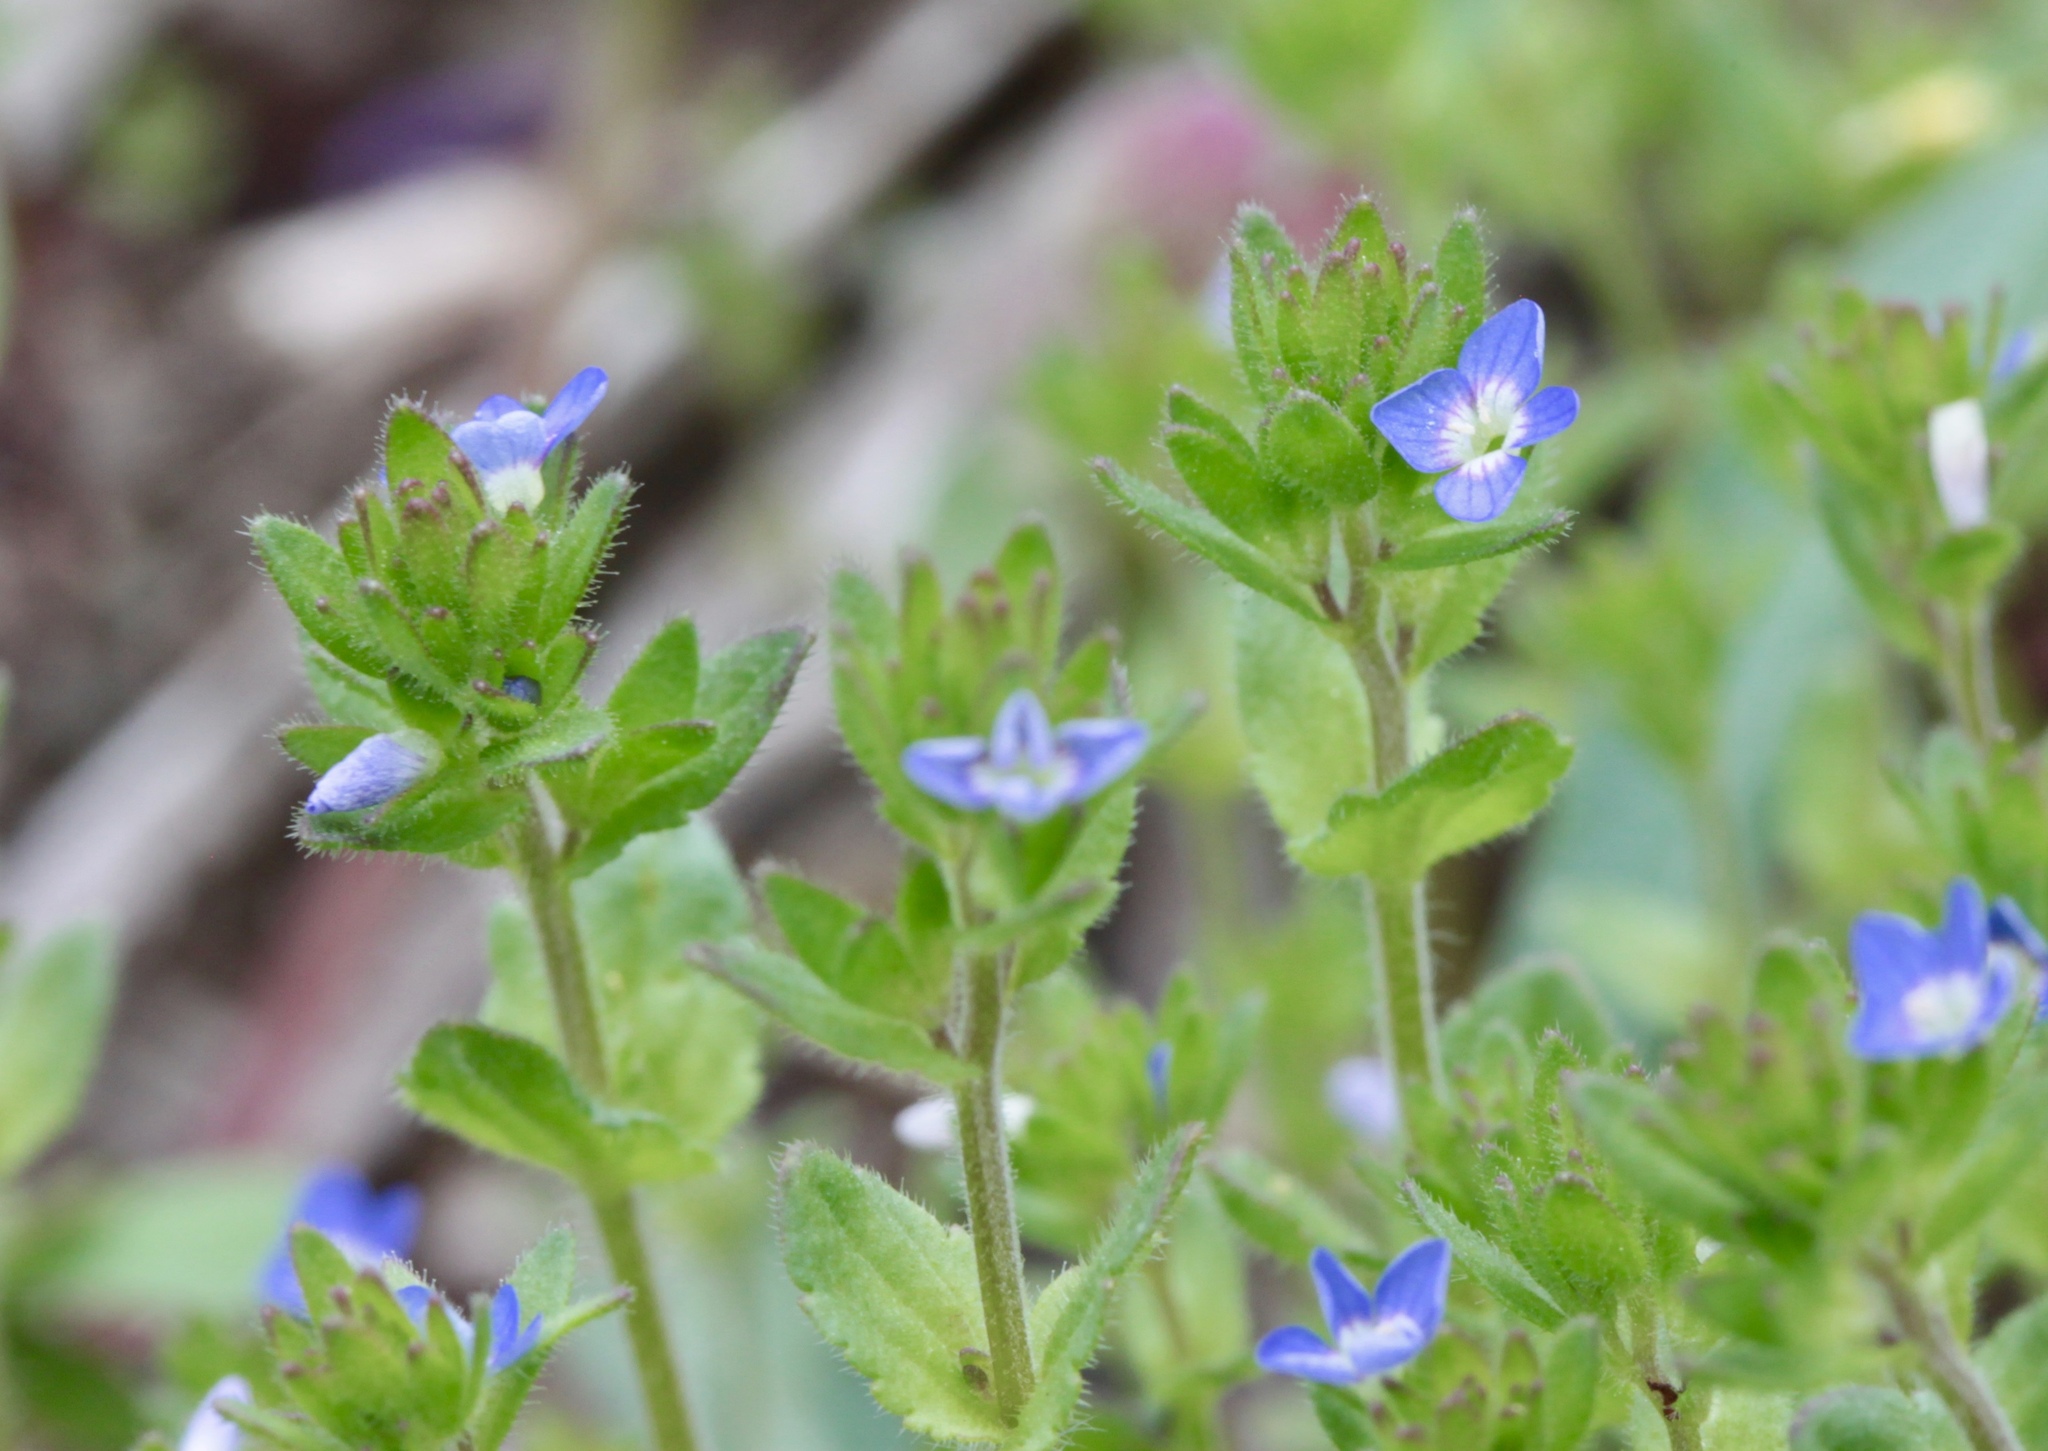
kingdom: Plantae
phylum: Tracheophyta
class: Magnoliopsida
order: Lamiales
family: Plantaginaceae
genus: Veronica
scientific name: Veronica arvensis
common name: Corn speedwell
